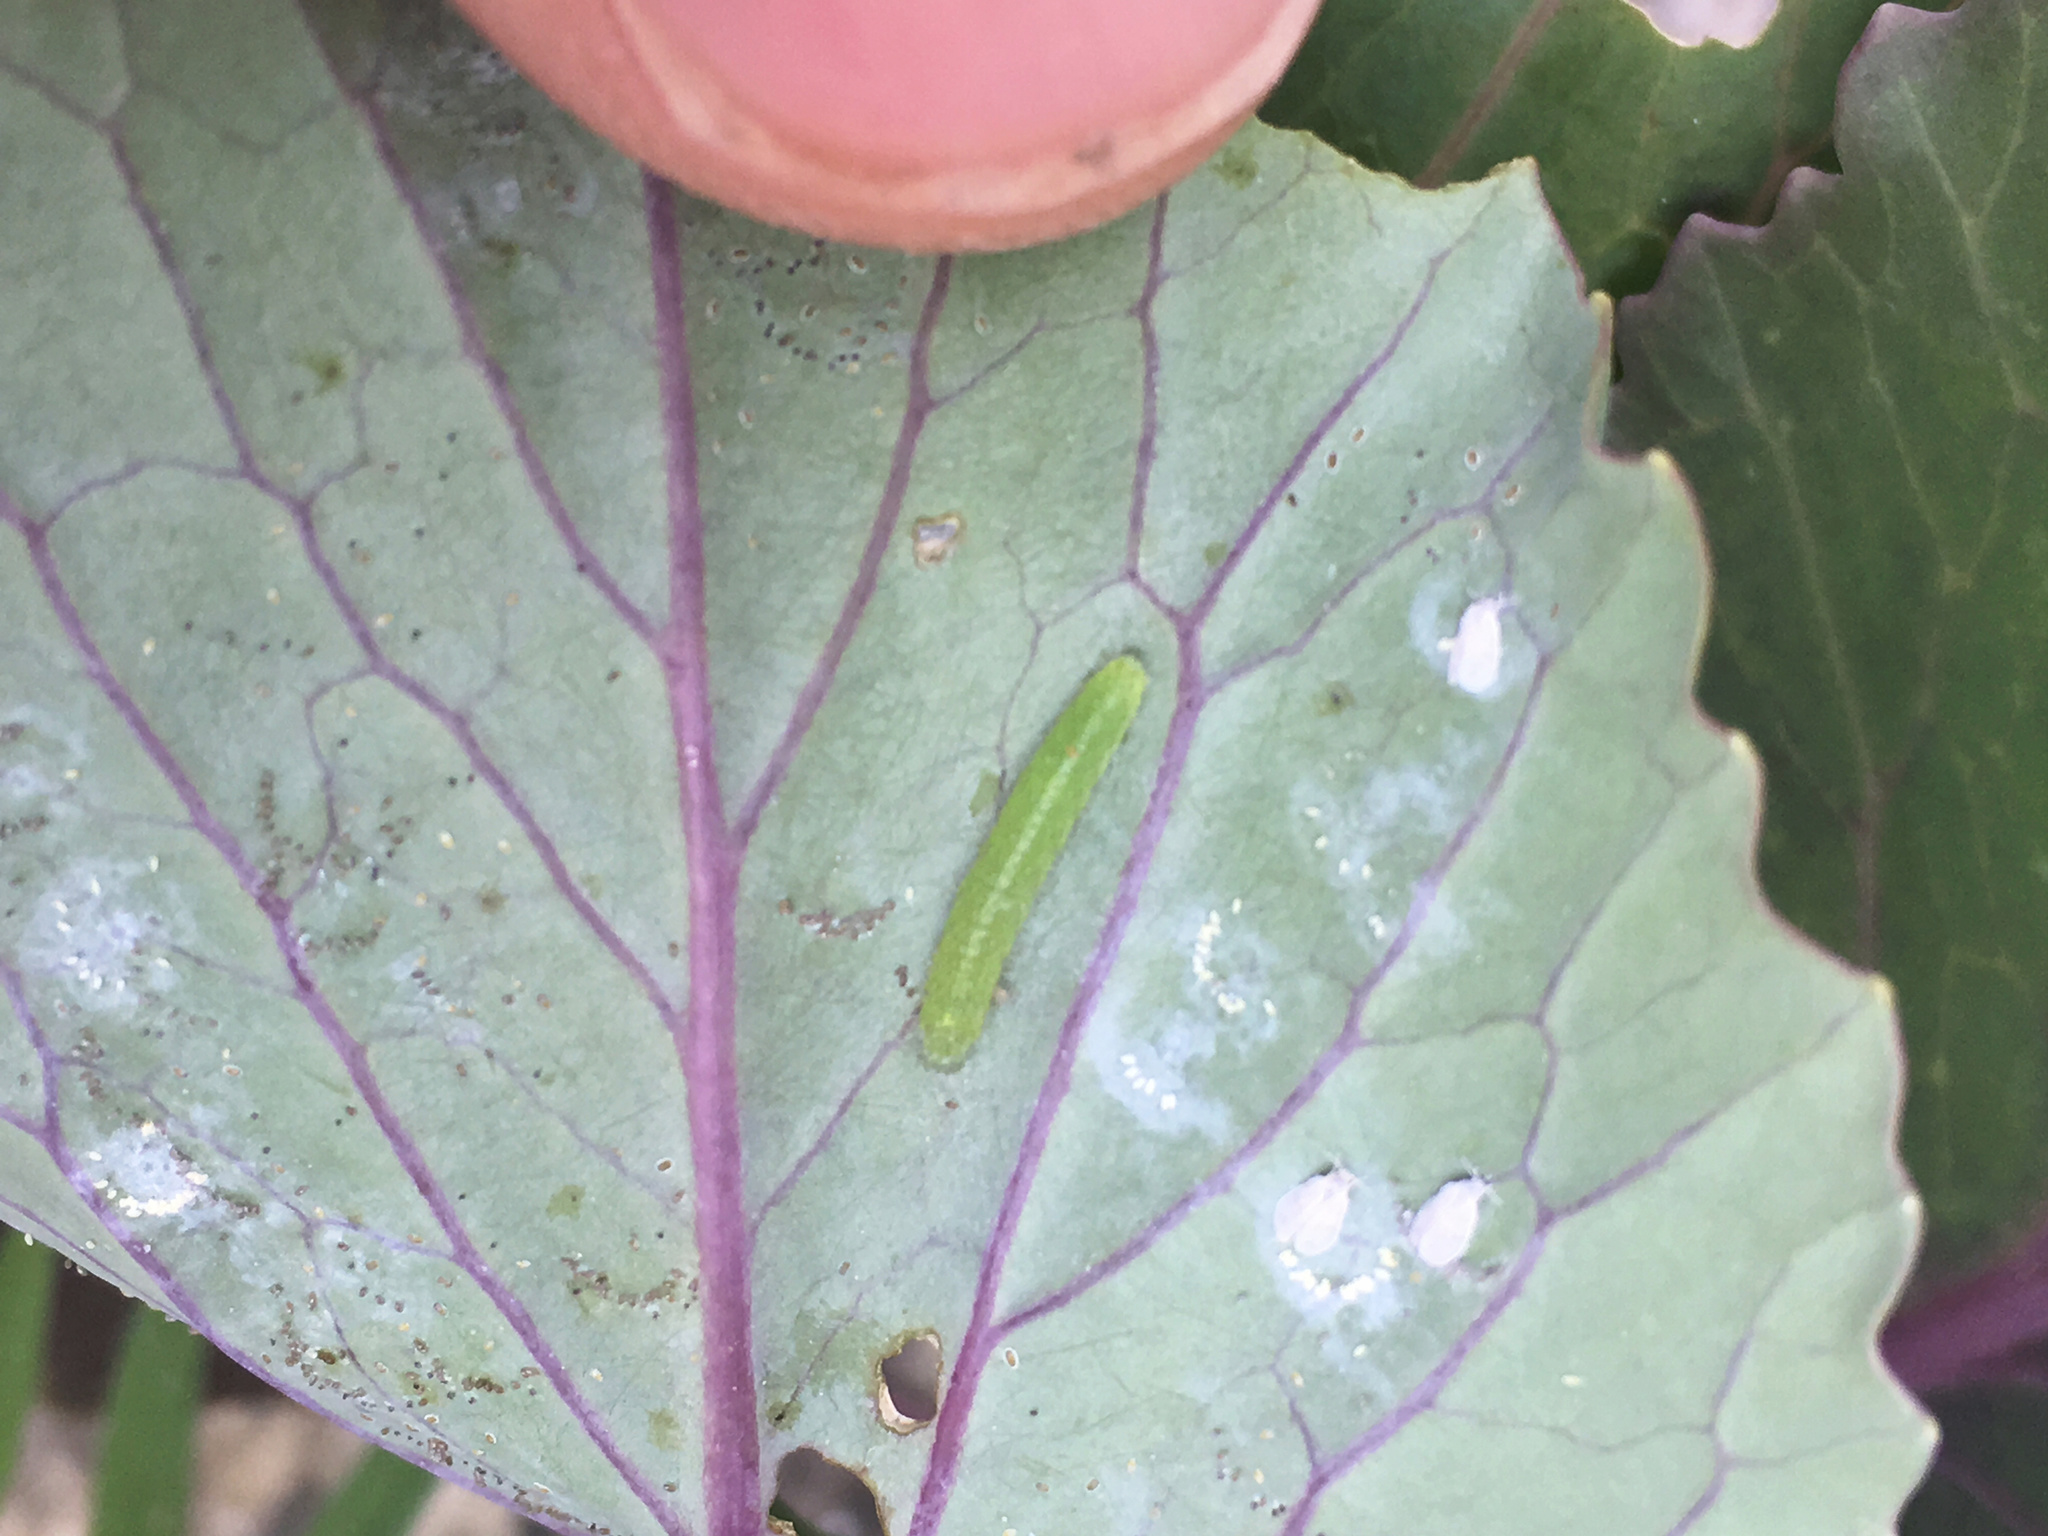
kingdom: Animalia
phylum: Arthropoda
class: Insecta
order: Lepidoptera
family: Pieridae
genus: Pieris
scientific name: Pieris rapae
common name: Small white
